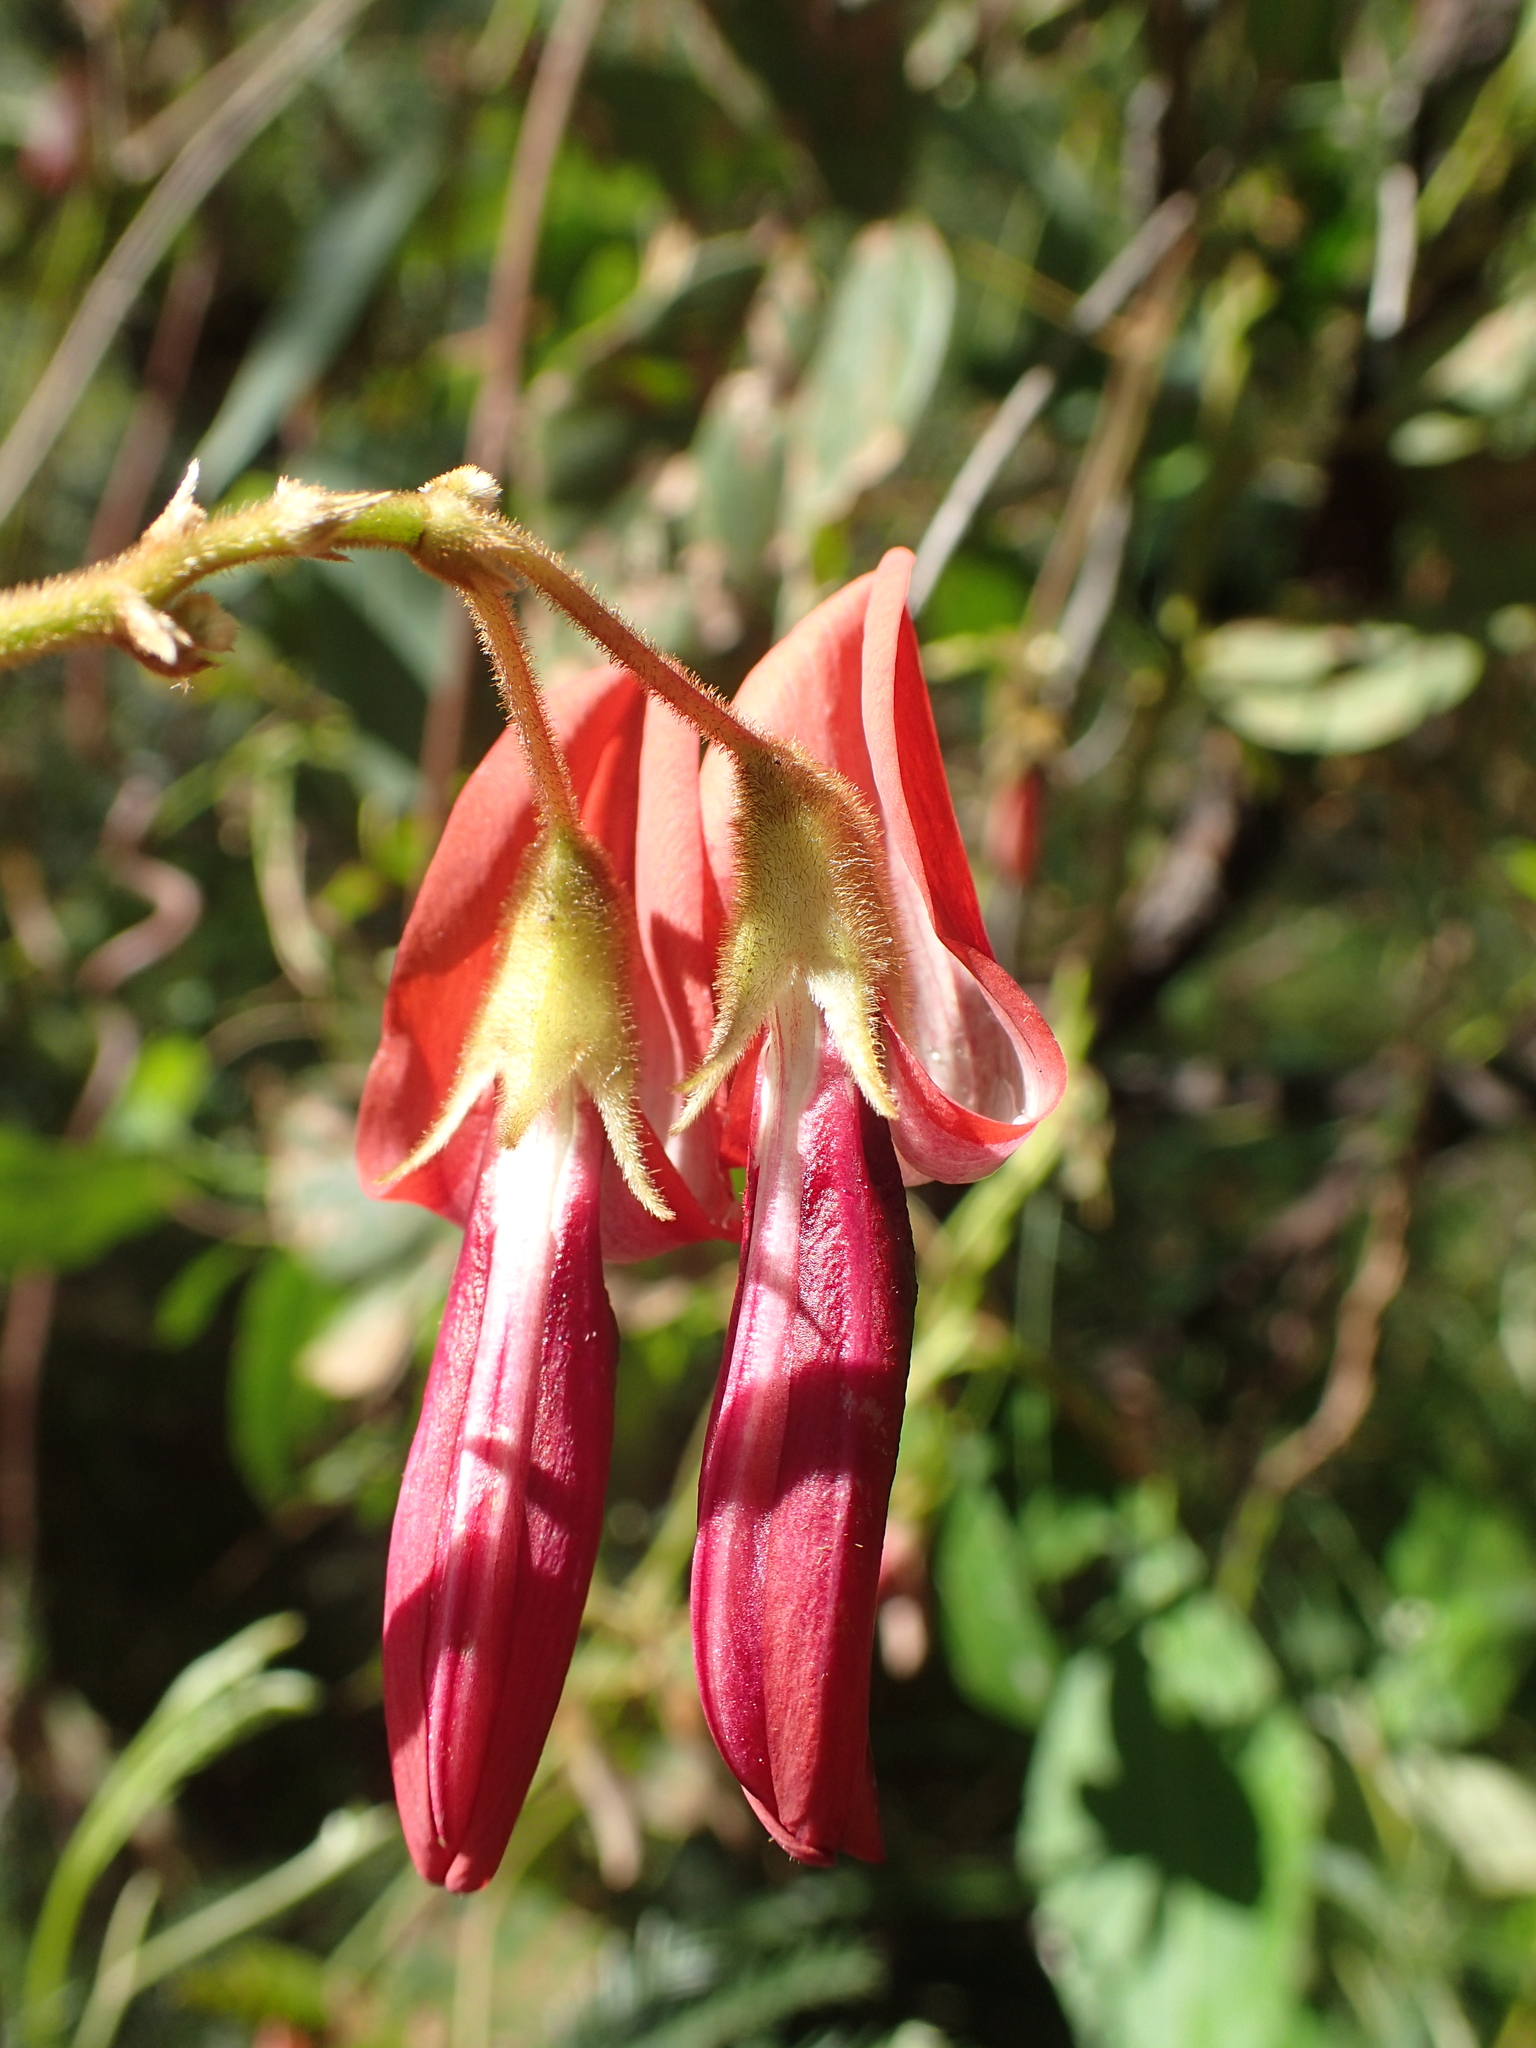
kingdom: Plantae
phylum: Tracheophyta
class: Magnoliopsida
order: Fabales
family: Fabaceae
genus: Kennedia
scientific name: Kennedia rubicunda
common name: Red kennedy-pea
